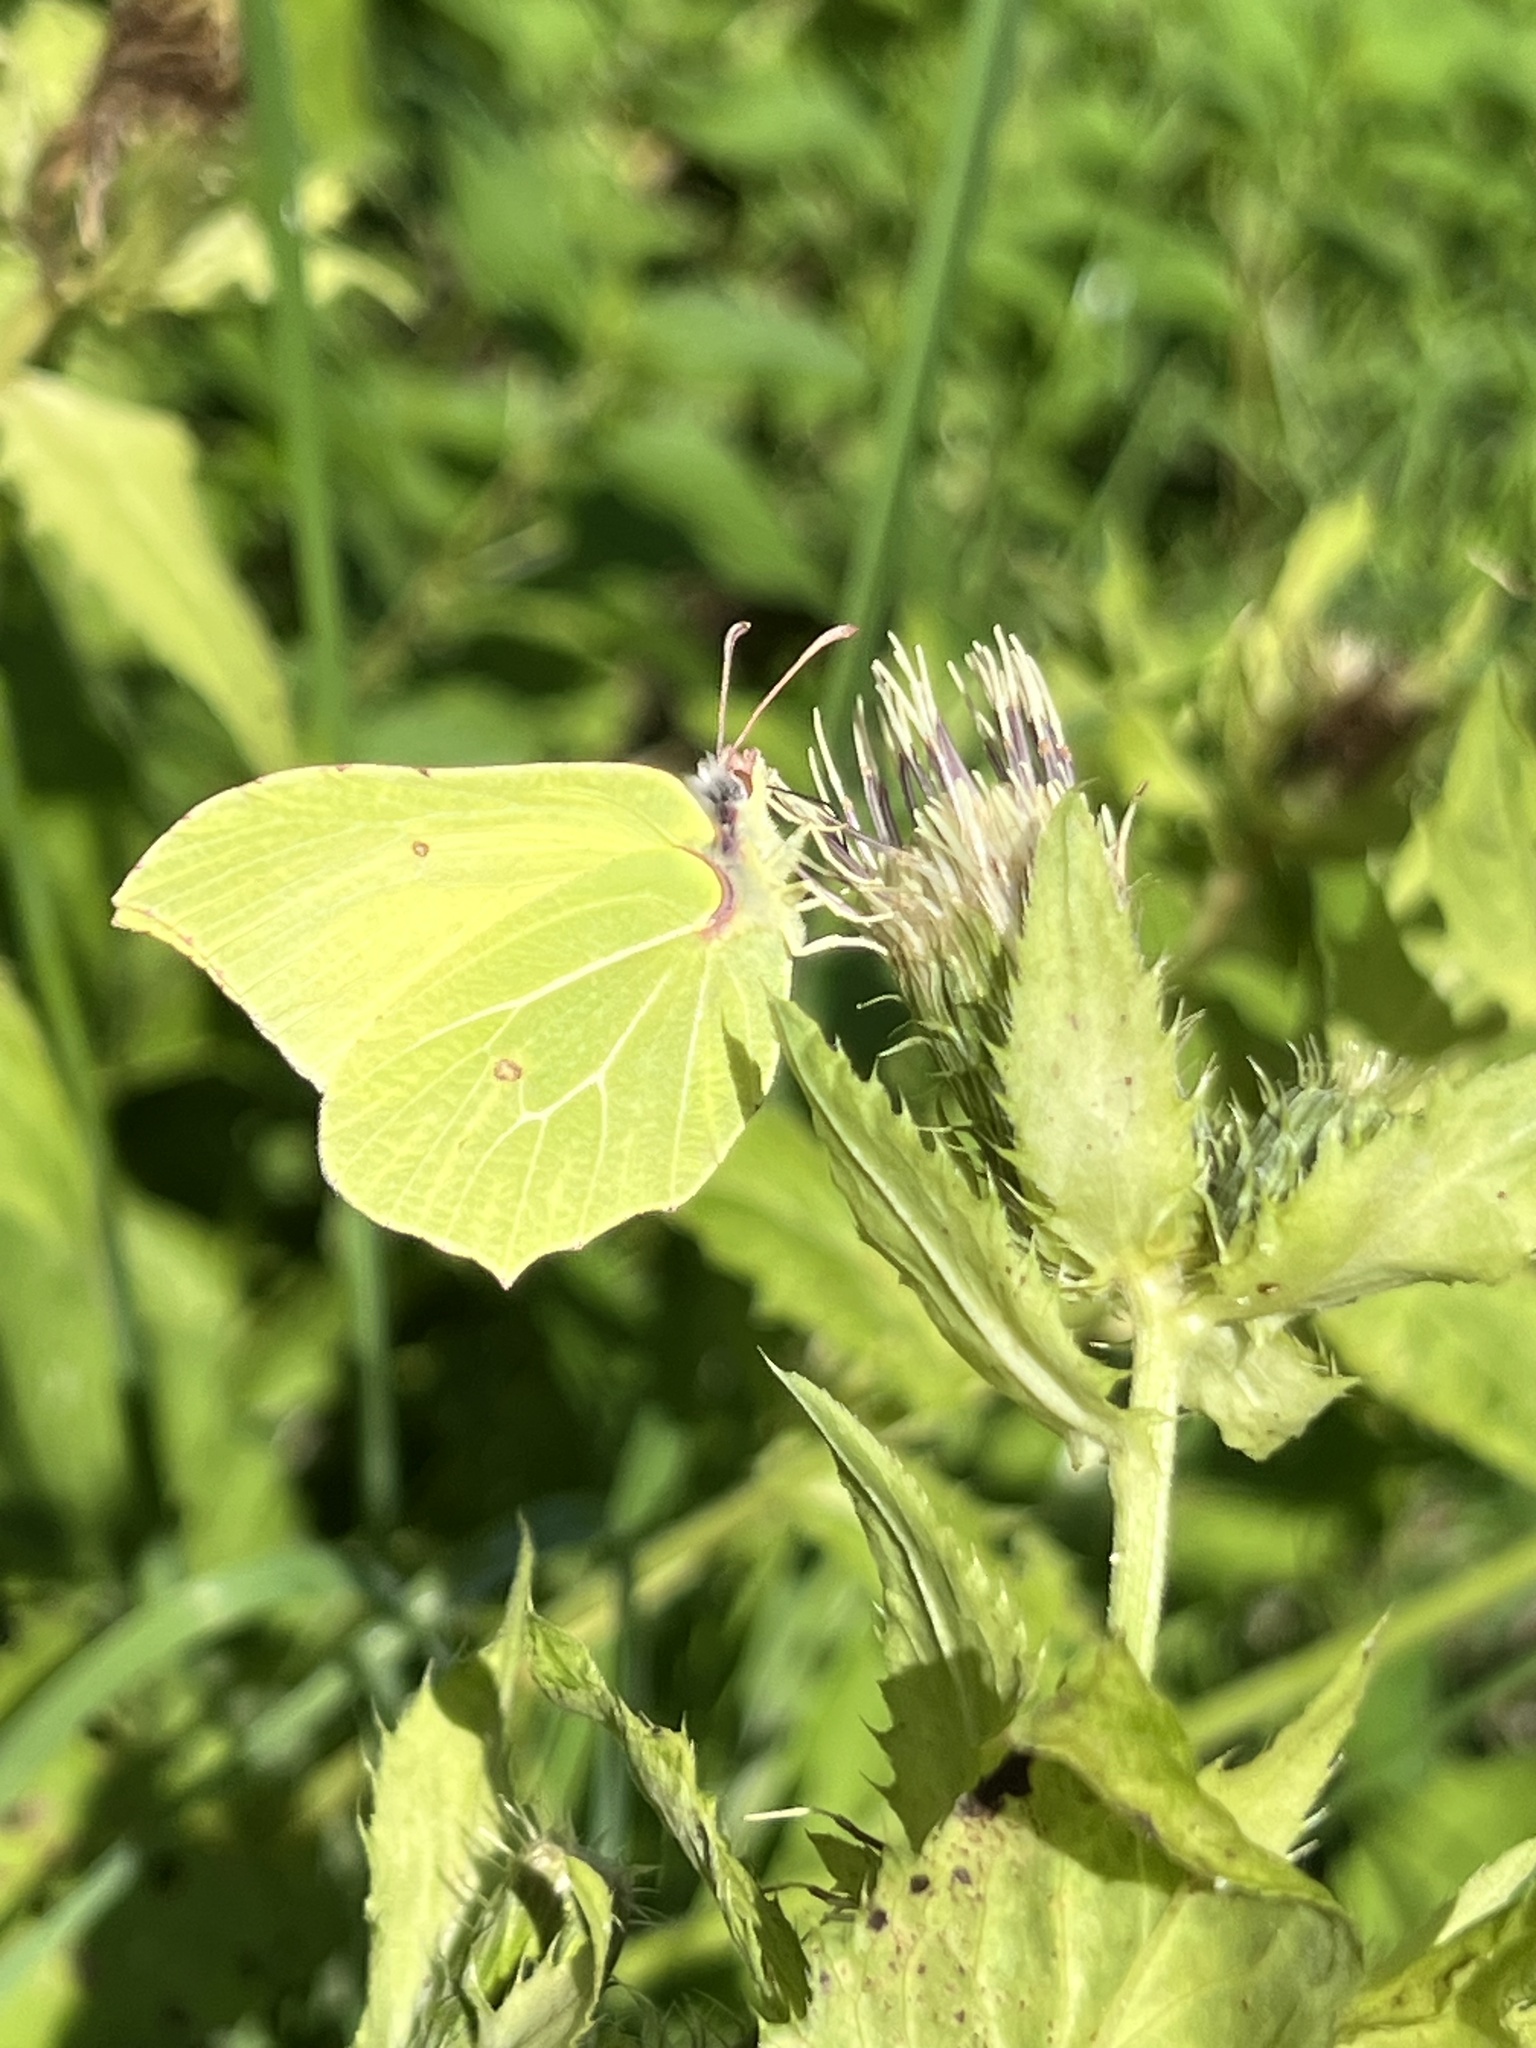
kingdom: Animalia
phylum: Arthropoda
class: Insecta
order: Lepidoptera
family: Pieridae
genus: Gonepteryx
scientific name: Gonepteryx rhamni
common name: Brimstone
